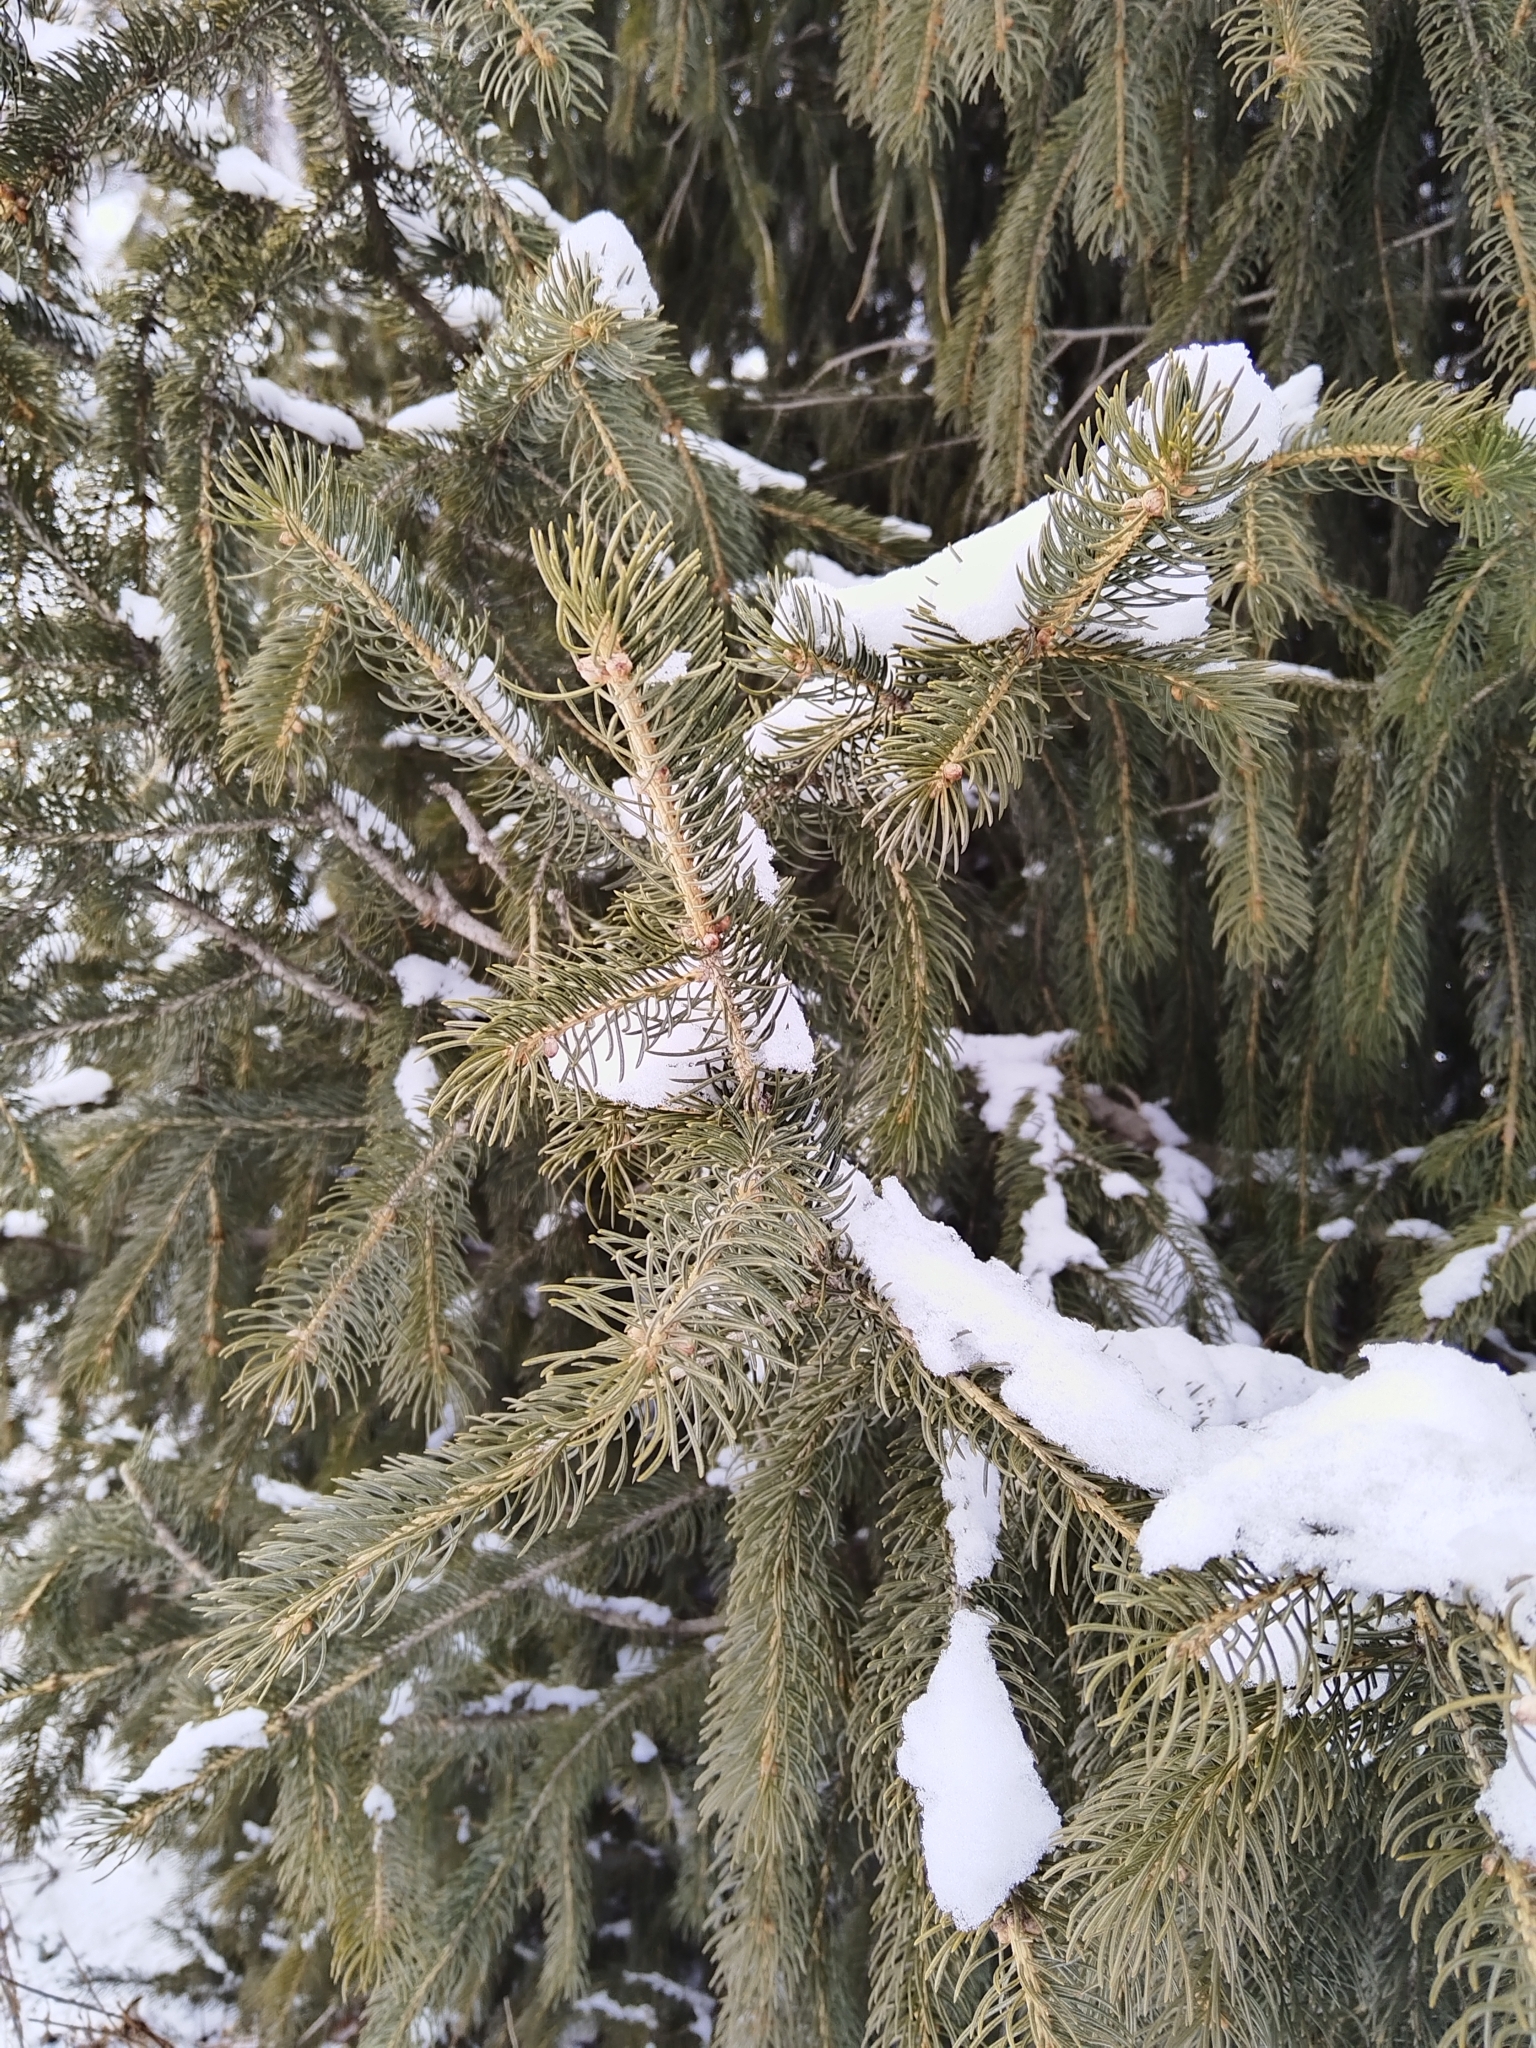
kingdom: Plantae
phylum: Tracheophyta
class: Pinopsida
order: Pinales
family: Pinaceae
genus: Picea
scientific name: Picea schrenkiana
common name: Asian spruce
